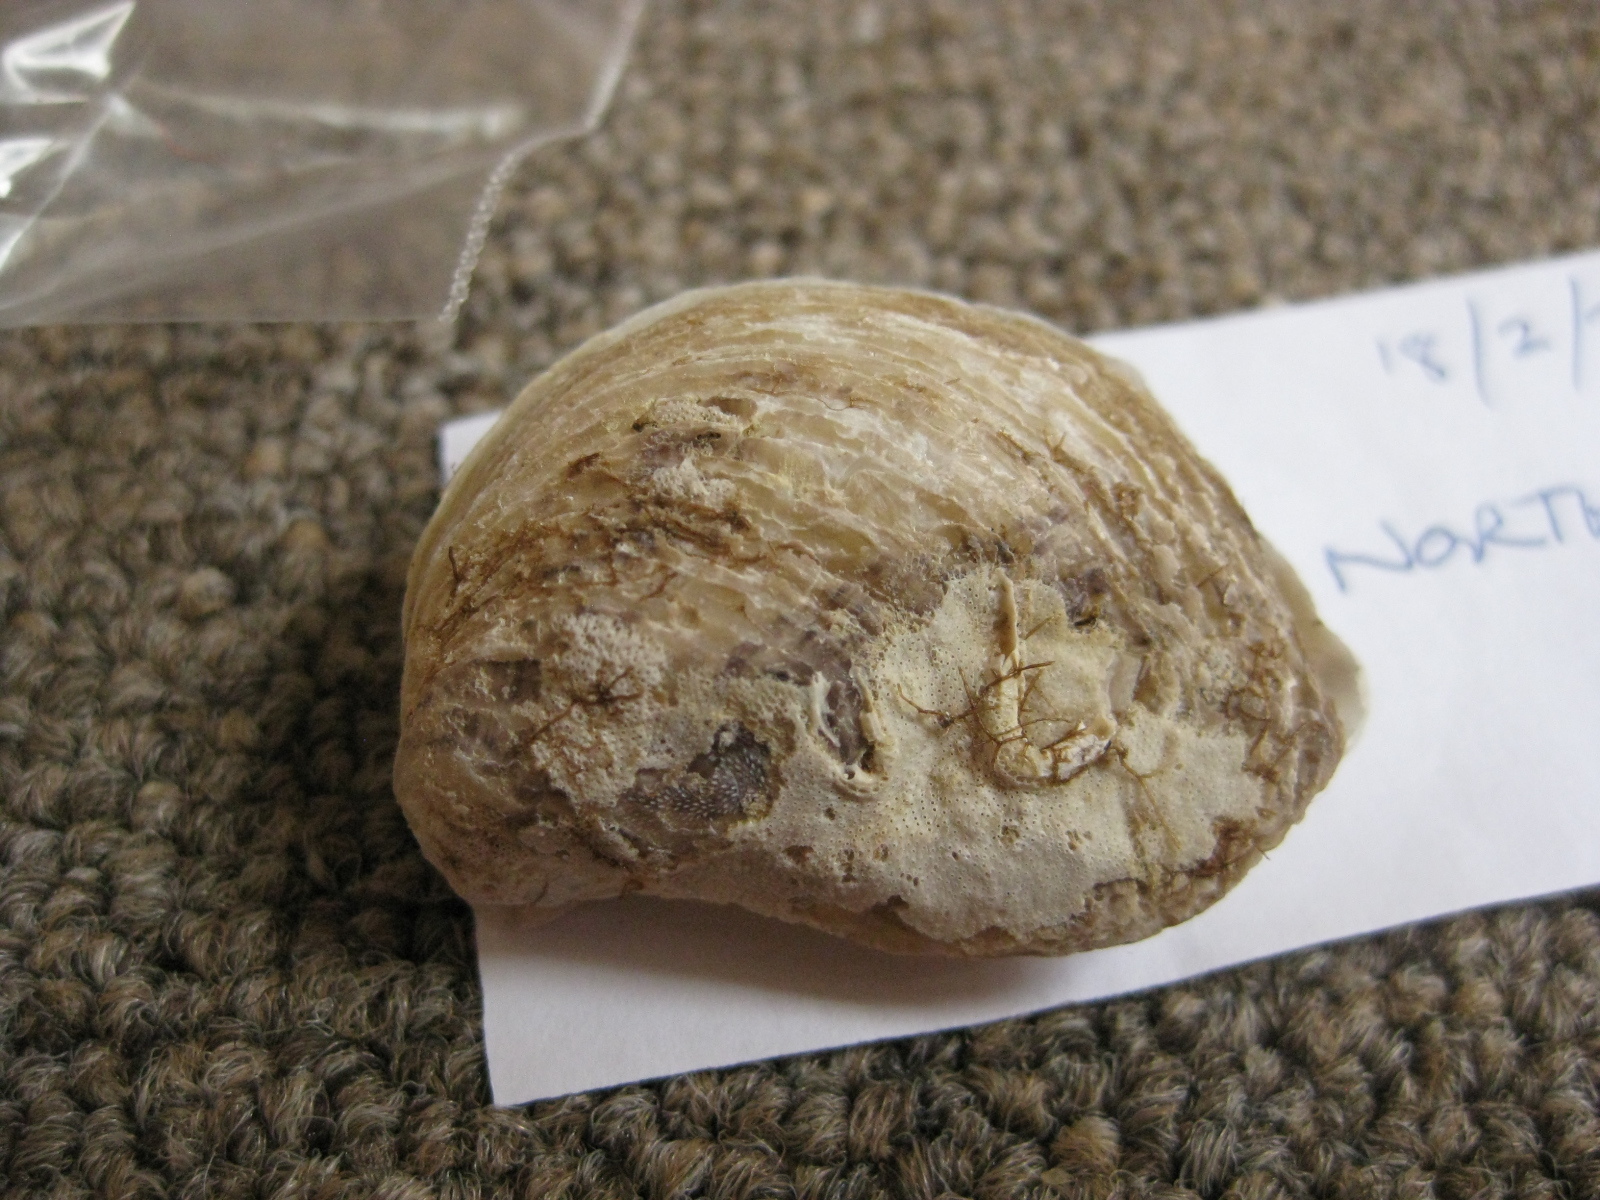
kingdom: Animalia
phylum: Mollusca
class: Bivalvia
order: Ostreida
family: Ostreidae
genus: Ostrea
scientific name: Ostrea chilensis
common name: Chilean oyster
